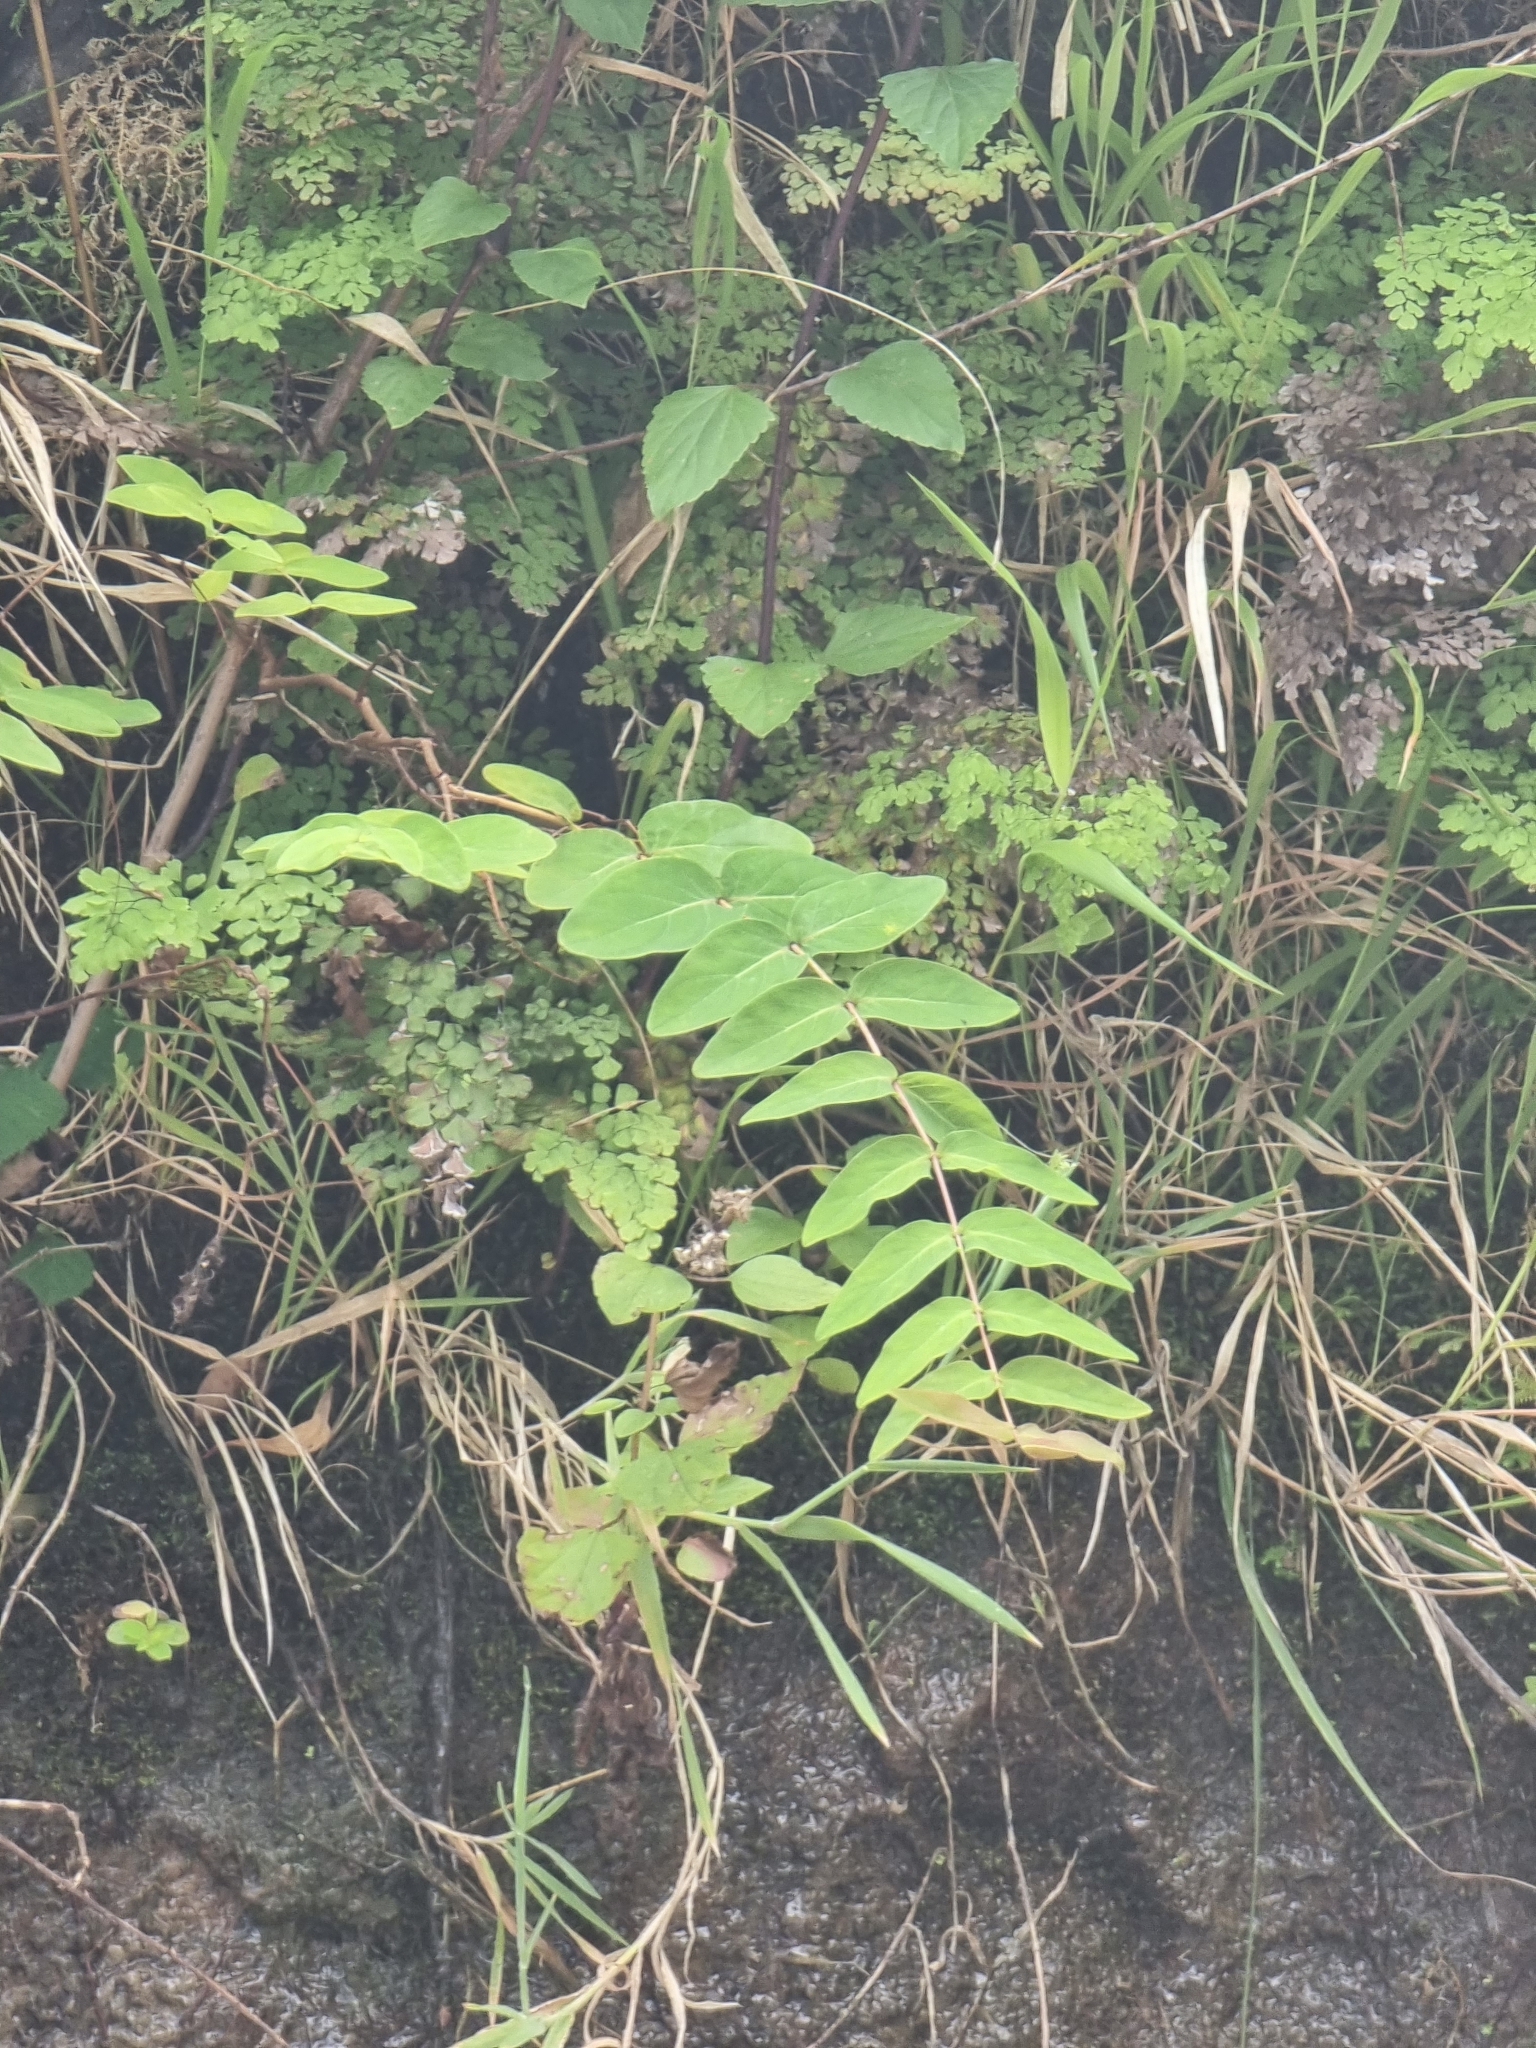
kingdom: Plantae
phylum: Tracheophyta
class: Magnoliopsida
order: Malpighiales
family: Hypericaceae
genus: Hypericum
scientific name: Hypericum grandifolium
